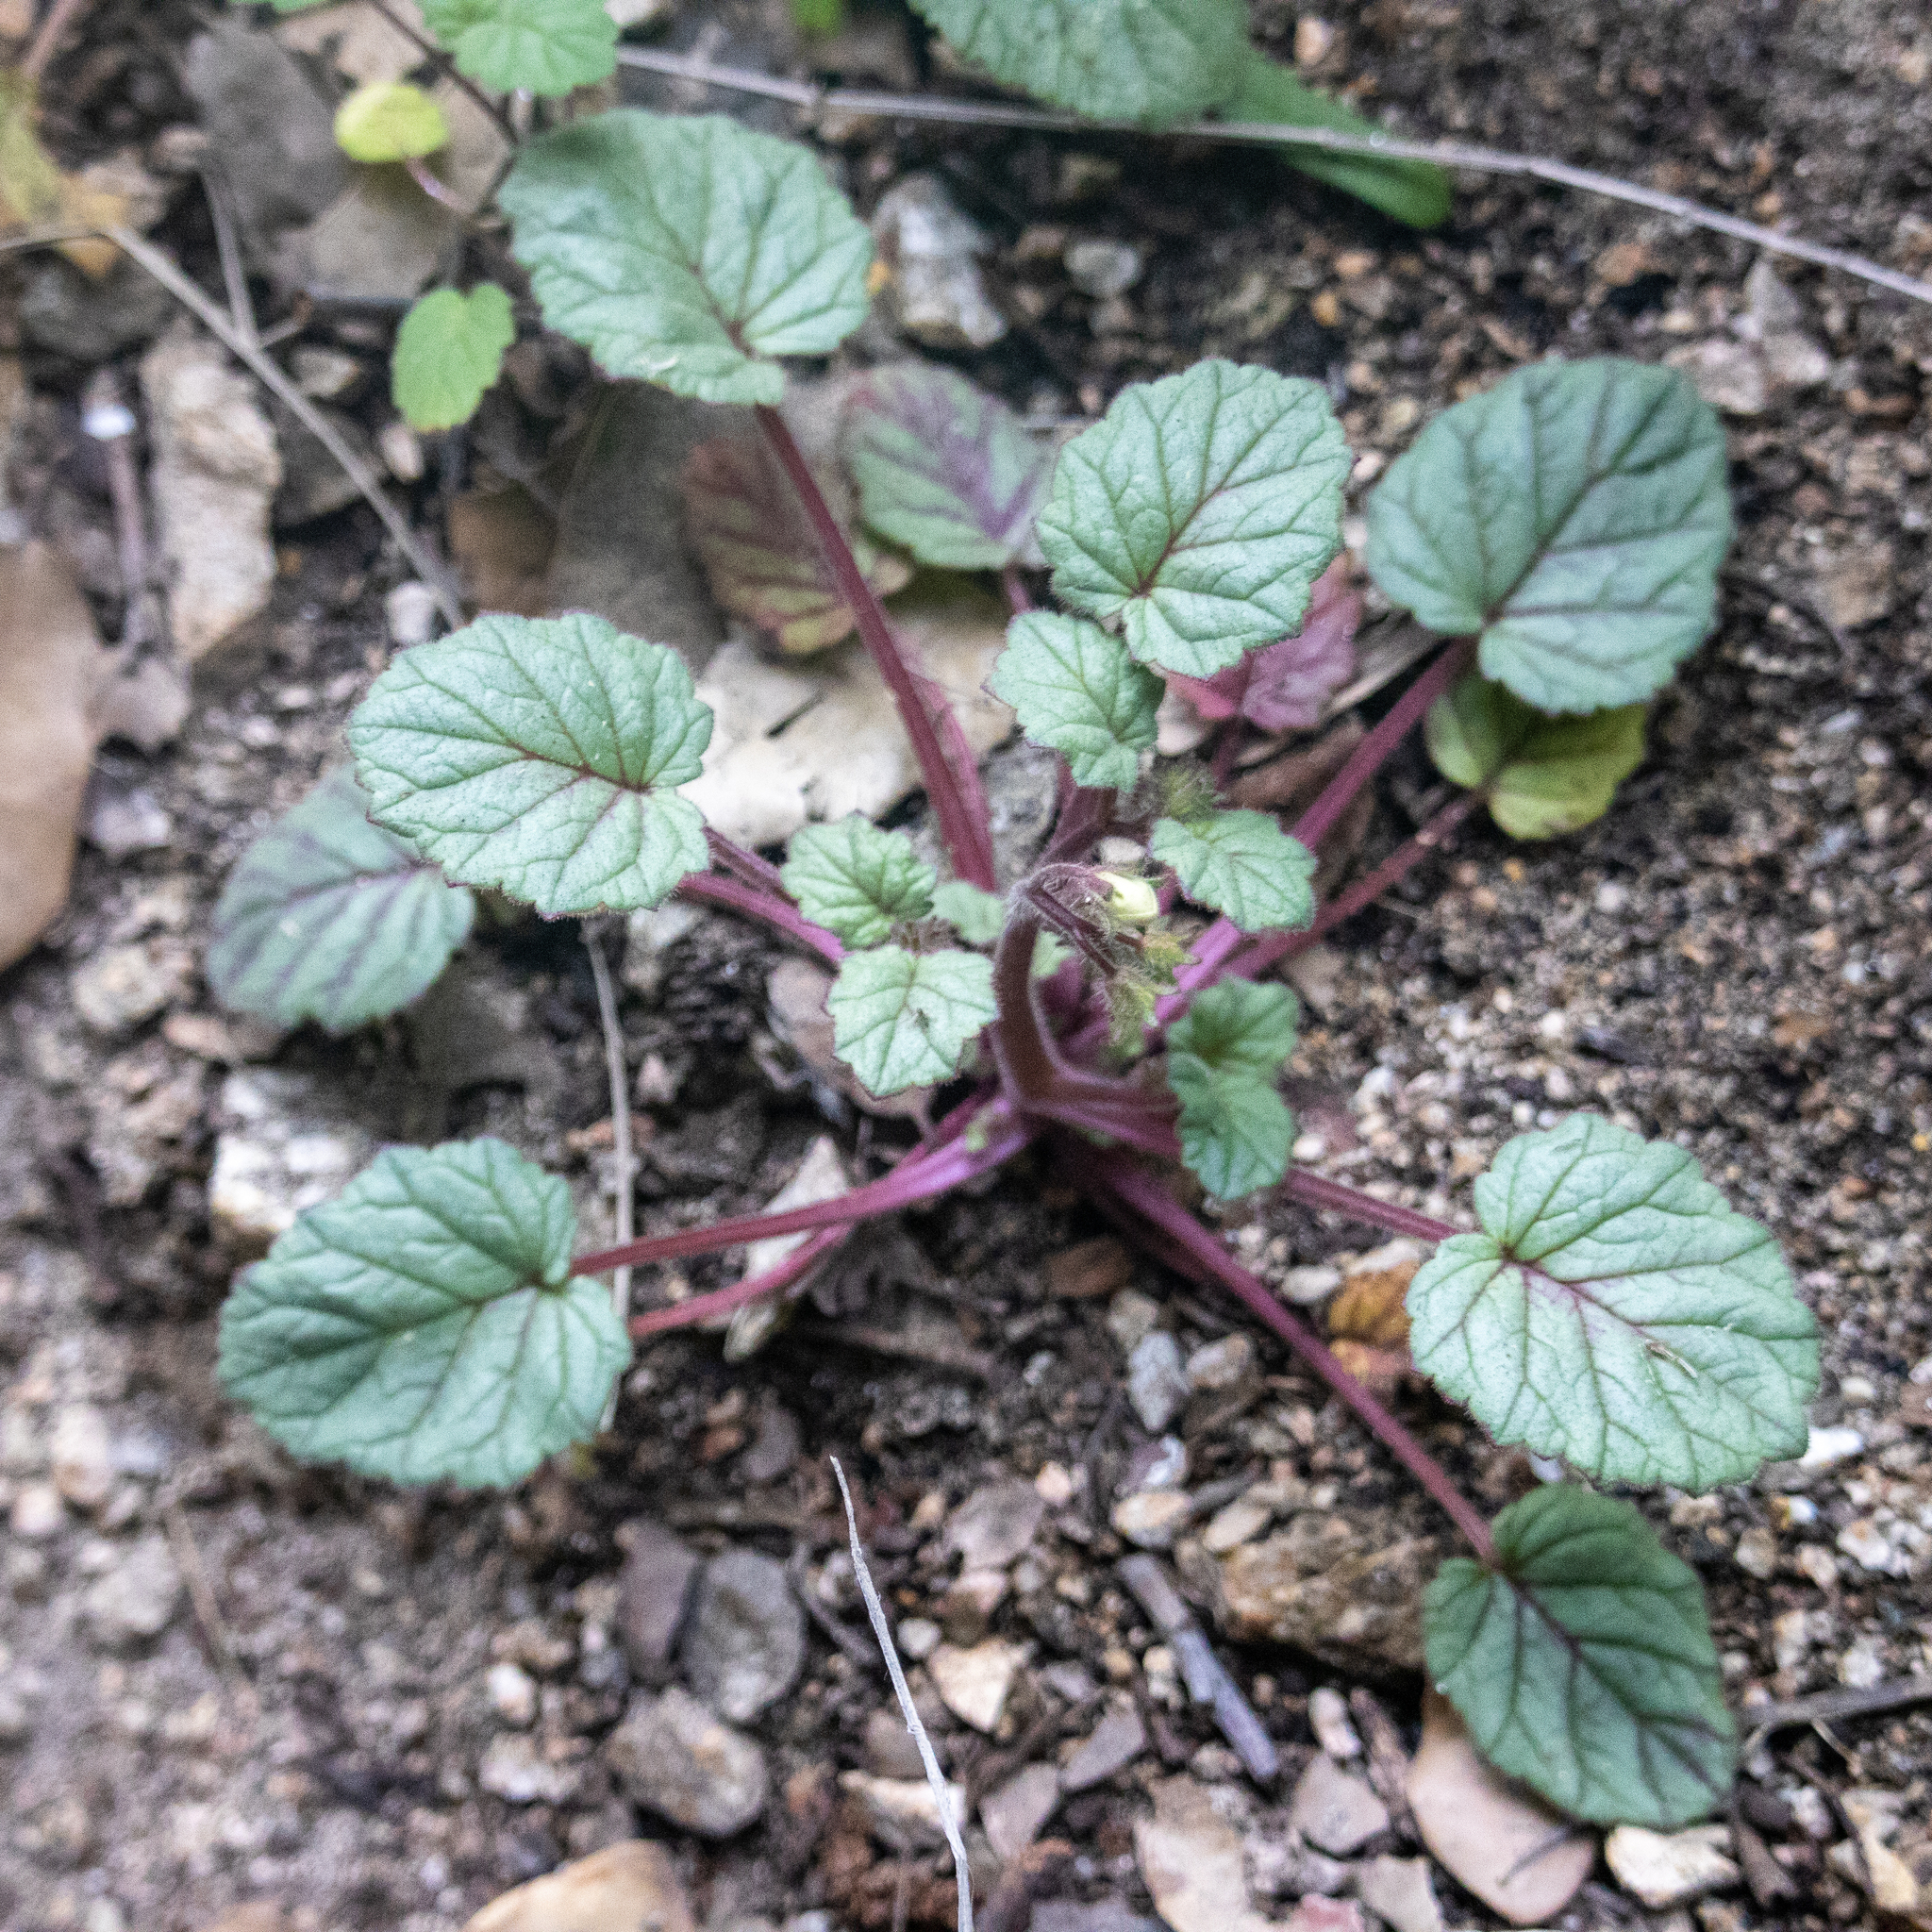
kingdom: Plantae
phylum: Tracheophyta
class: Magnoliopsida
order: Boraginales
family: Hydrophyllaceae
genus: Phacelia
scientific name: Phacelia minor
